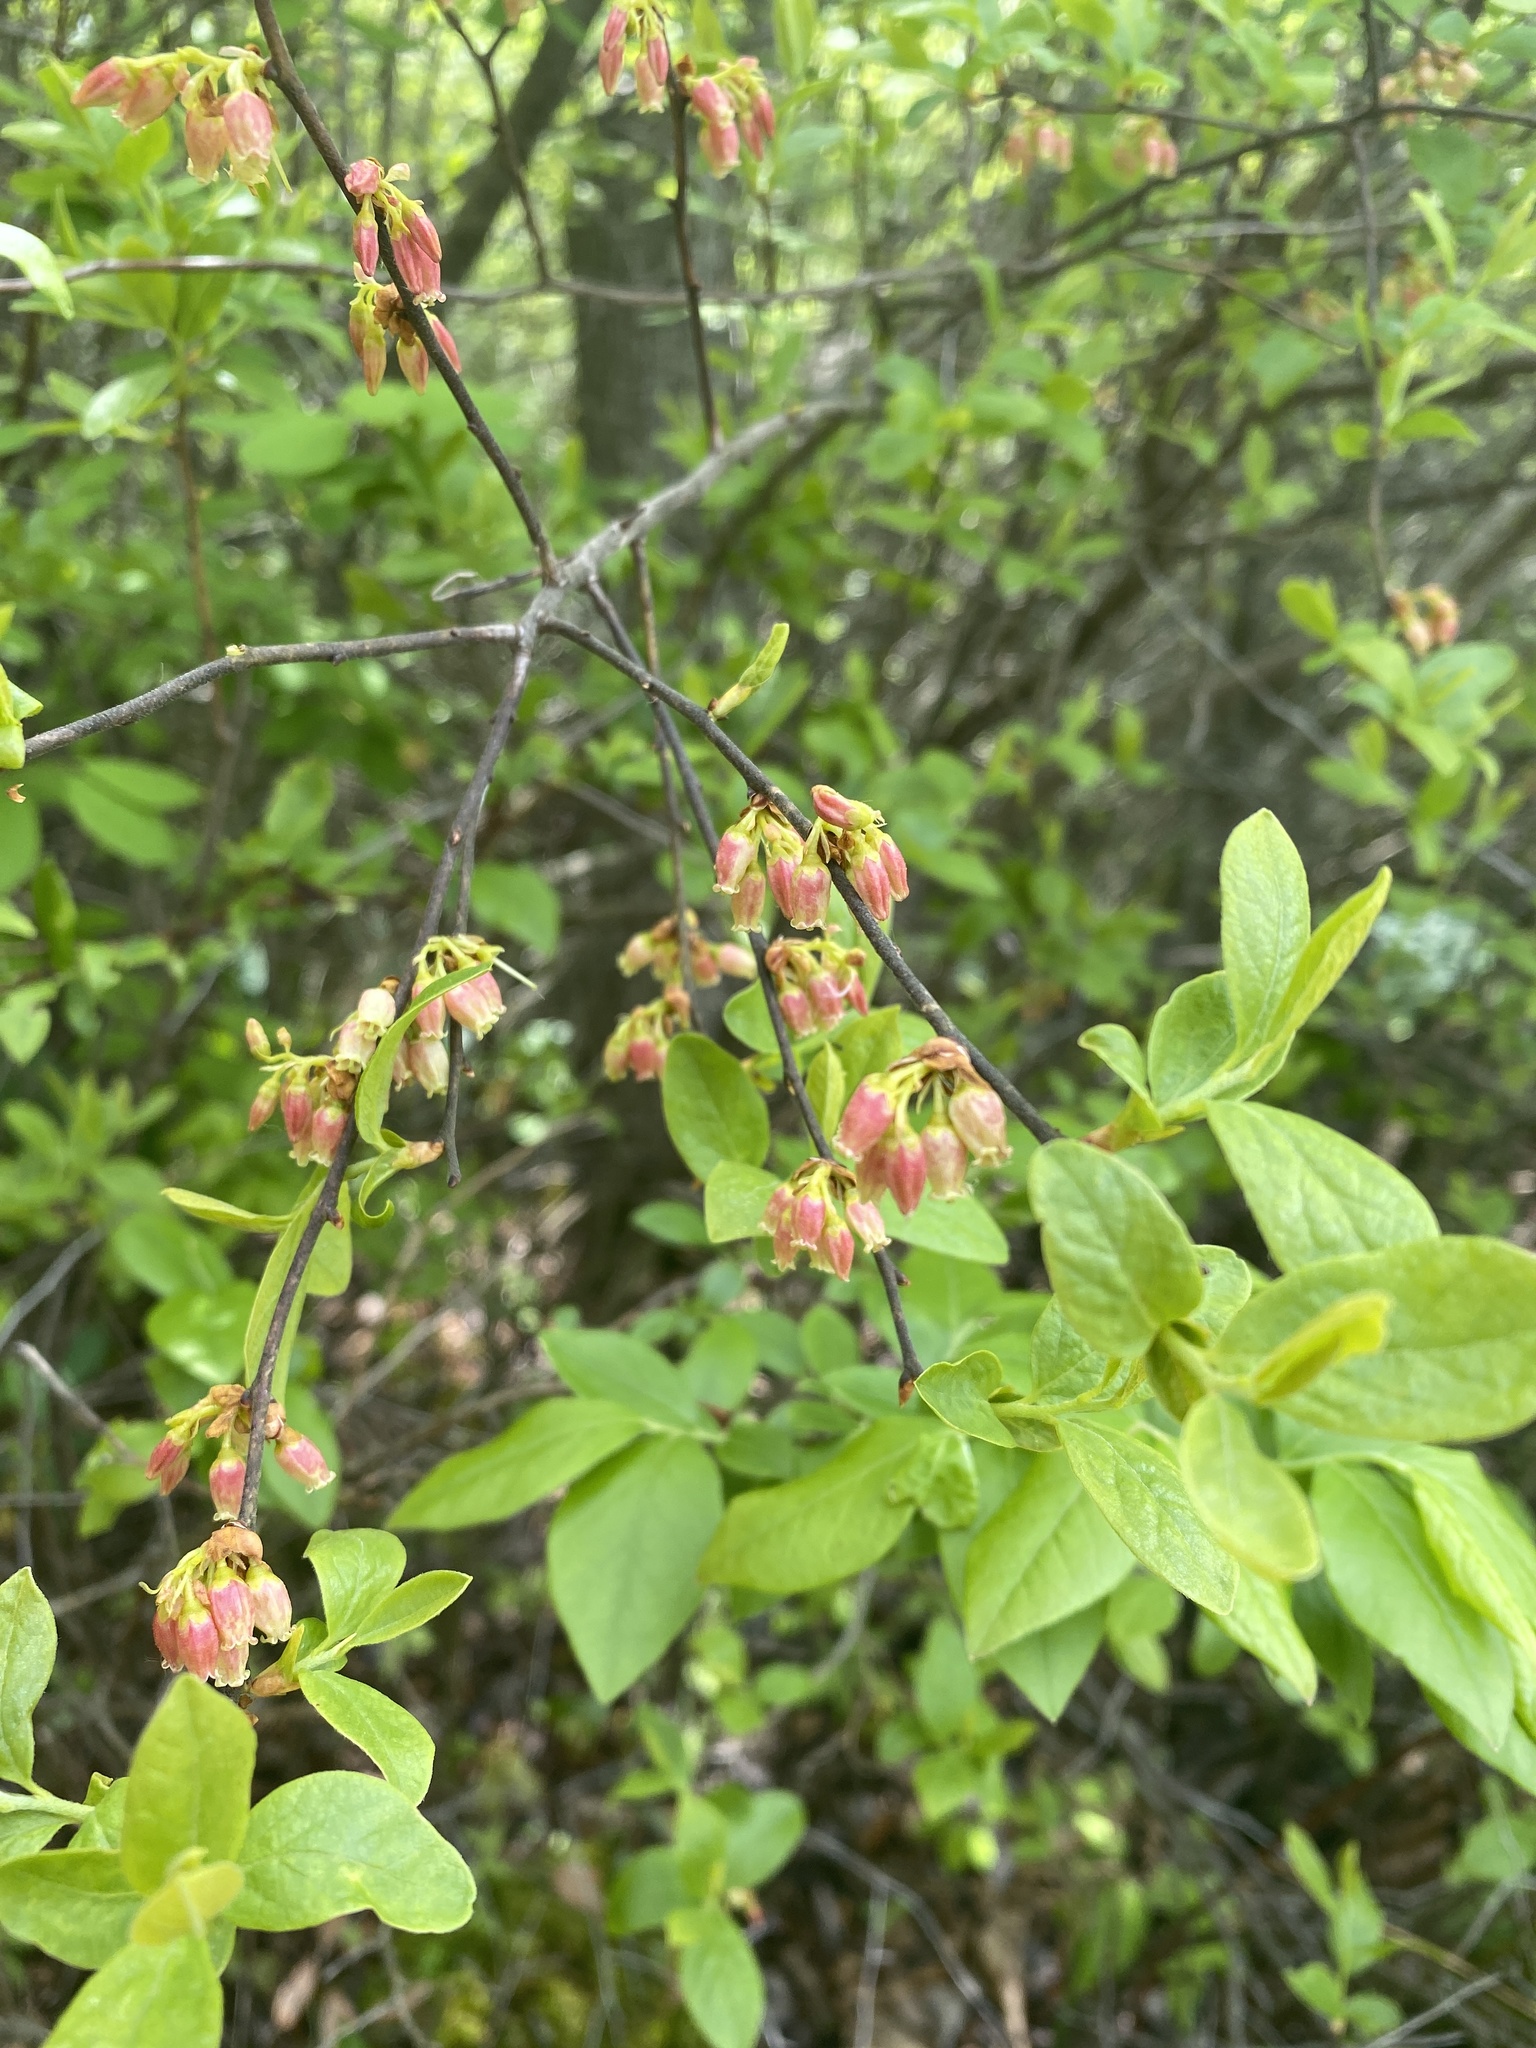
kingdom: Plantae
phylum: Tracheophyta
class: Magnoliopsida
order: Ericales
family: Ericaceae
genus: Gaylussacia
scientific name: Gaylussacia baccata
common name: Black huckleberry
